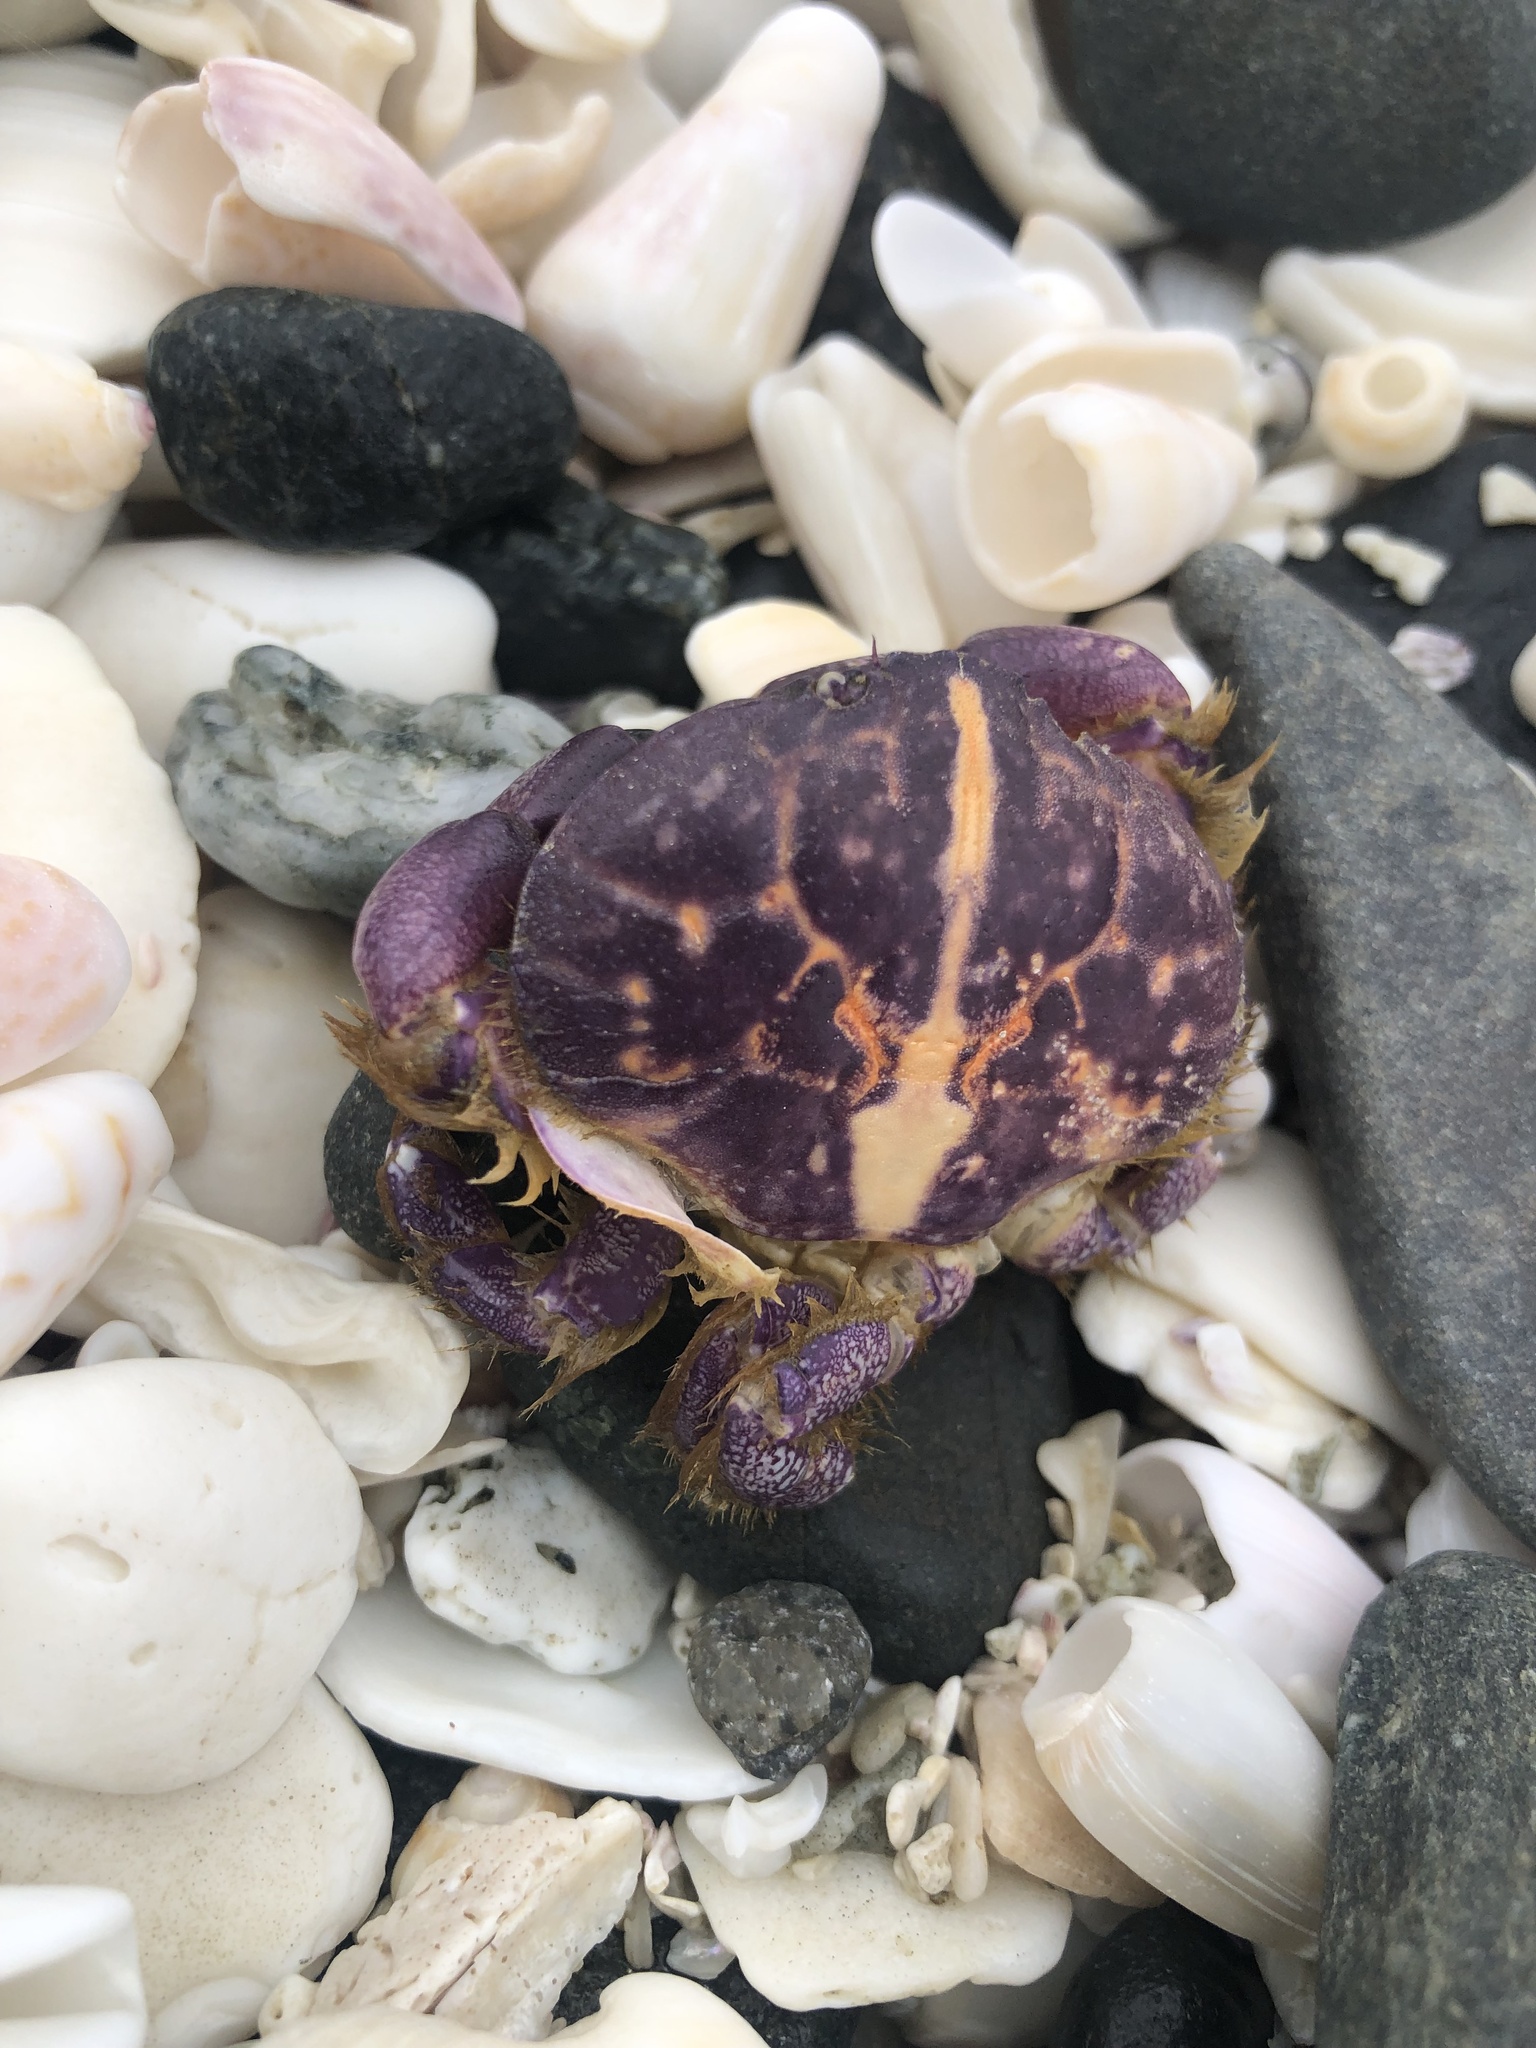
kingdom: Animalia
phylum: Arthropoda
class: Malacostraca
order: Decapoda
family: Xanthidae
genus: Paraxanthus
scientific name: Paraxanthus barbiger
